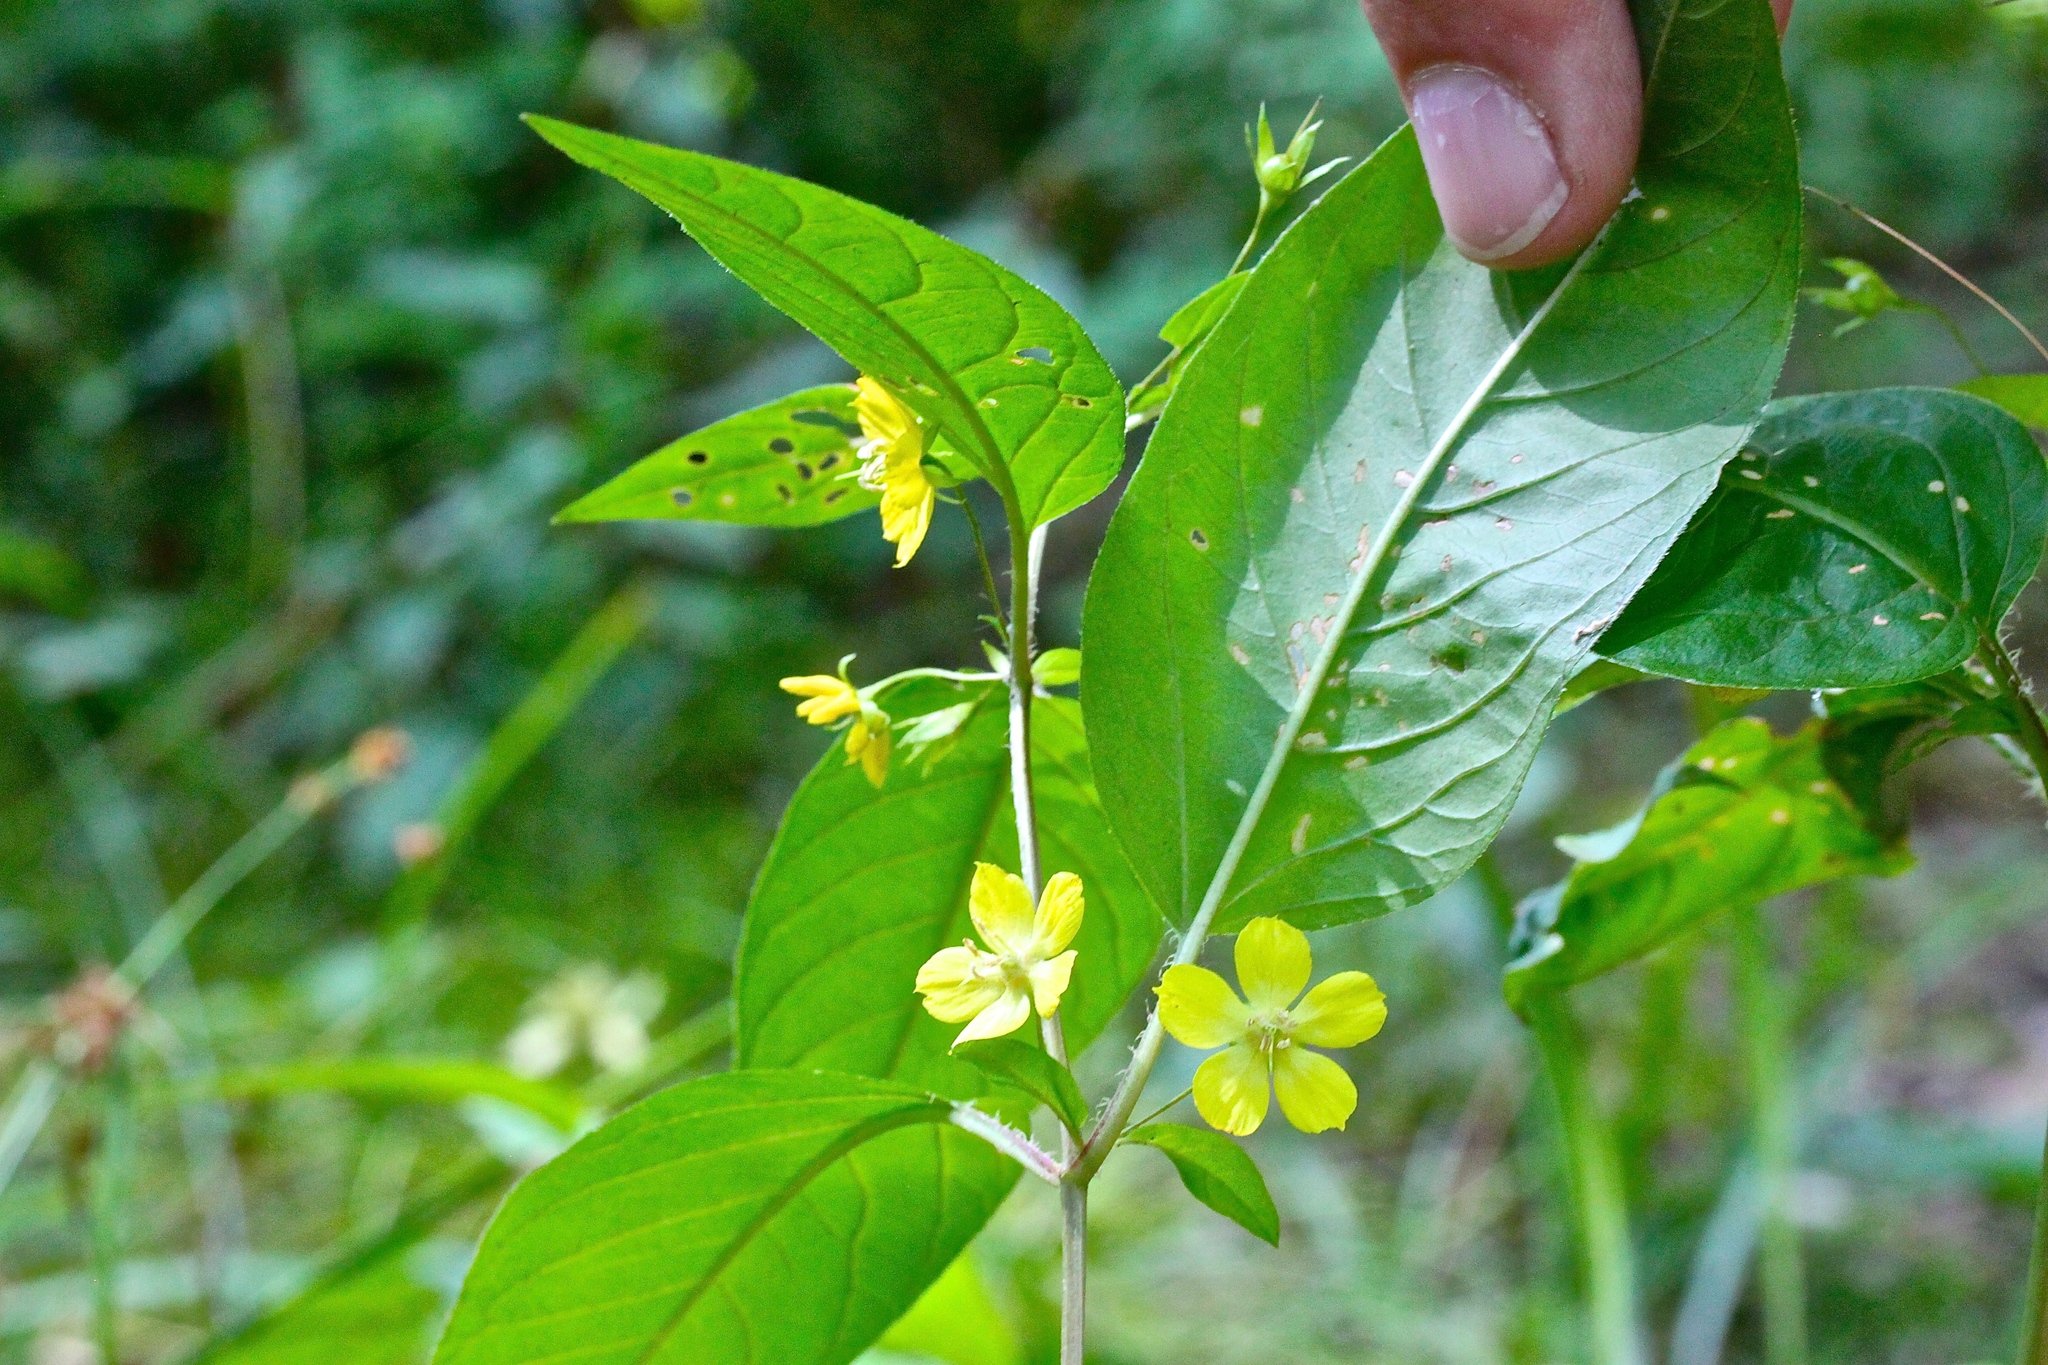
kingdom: Plantae
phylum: Tracheophyta
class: Magnoliopsida
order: Ericales
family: Primulaceae
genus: Lysimachia
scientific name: Lysimachia ciliata
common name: Fringed loosestrife
